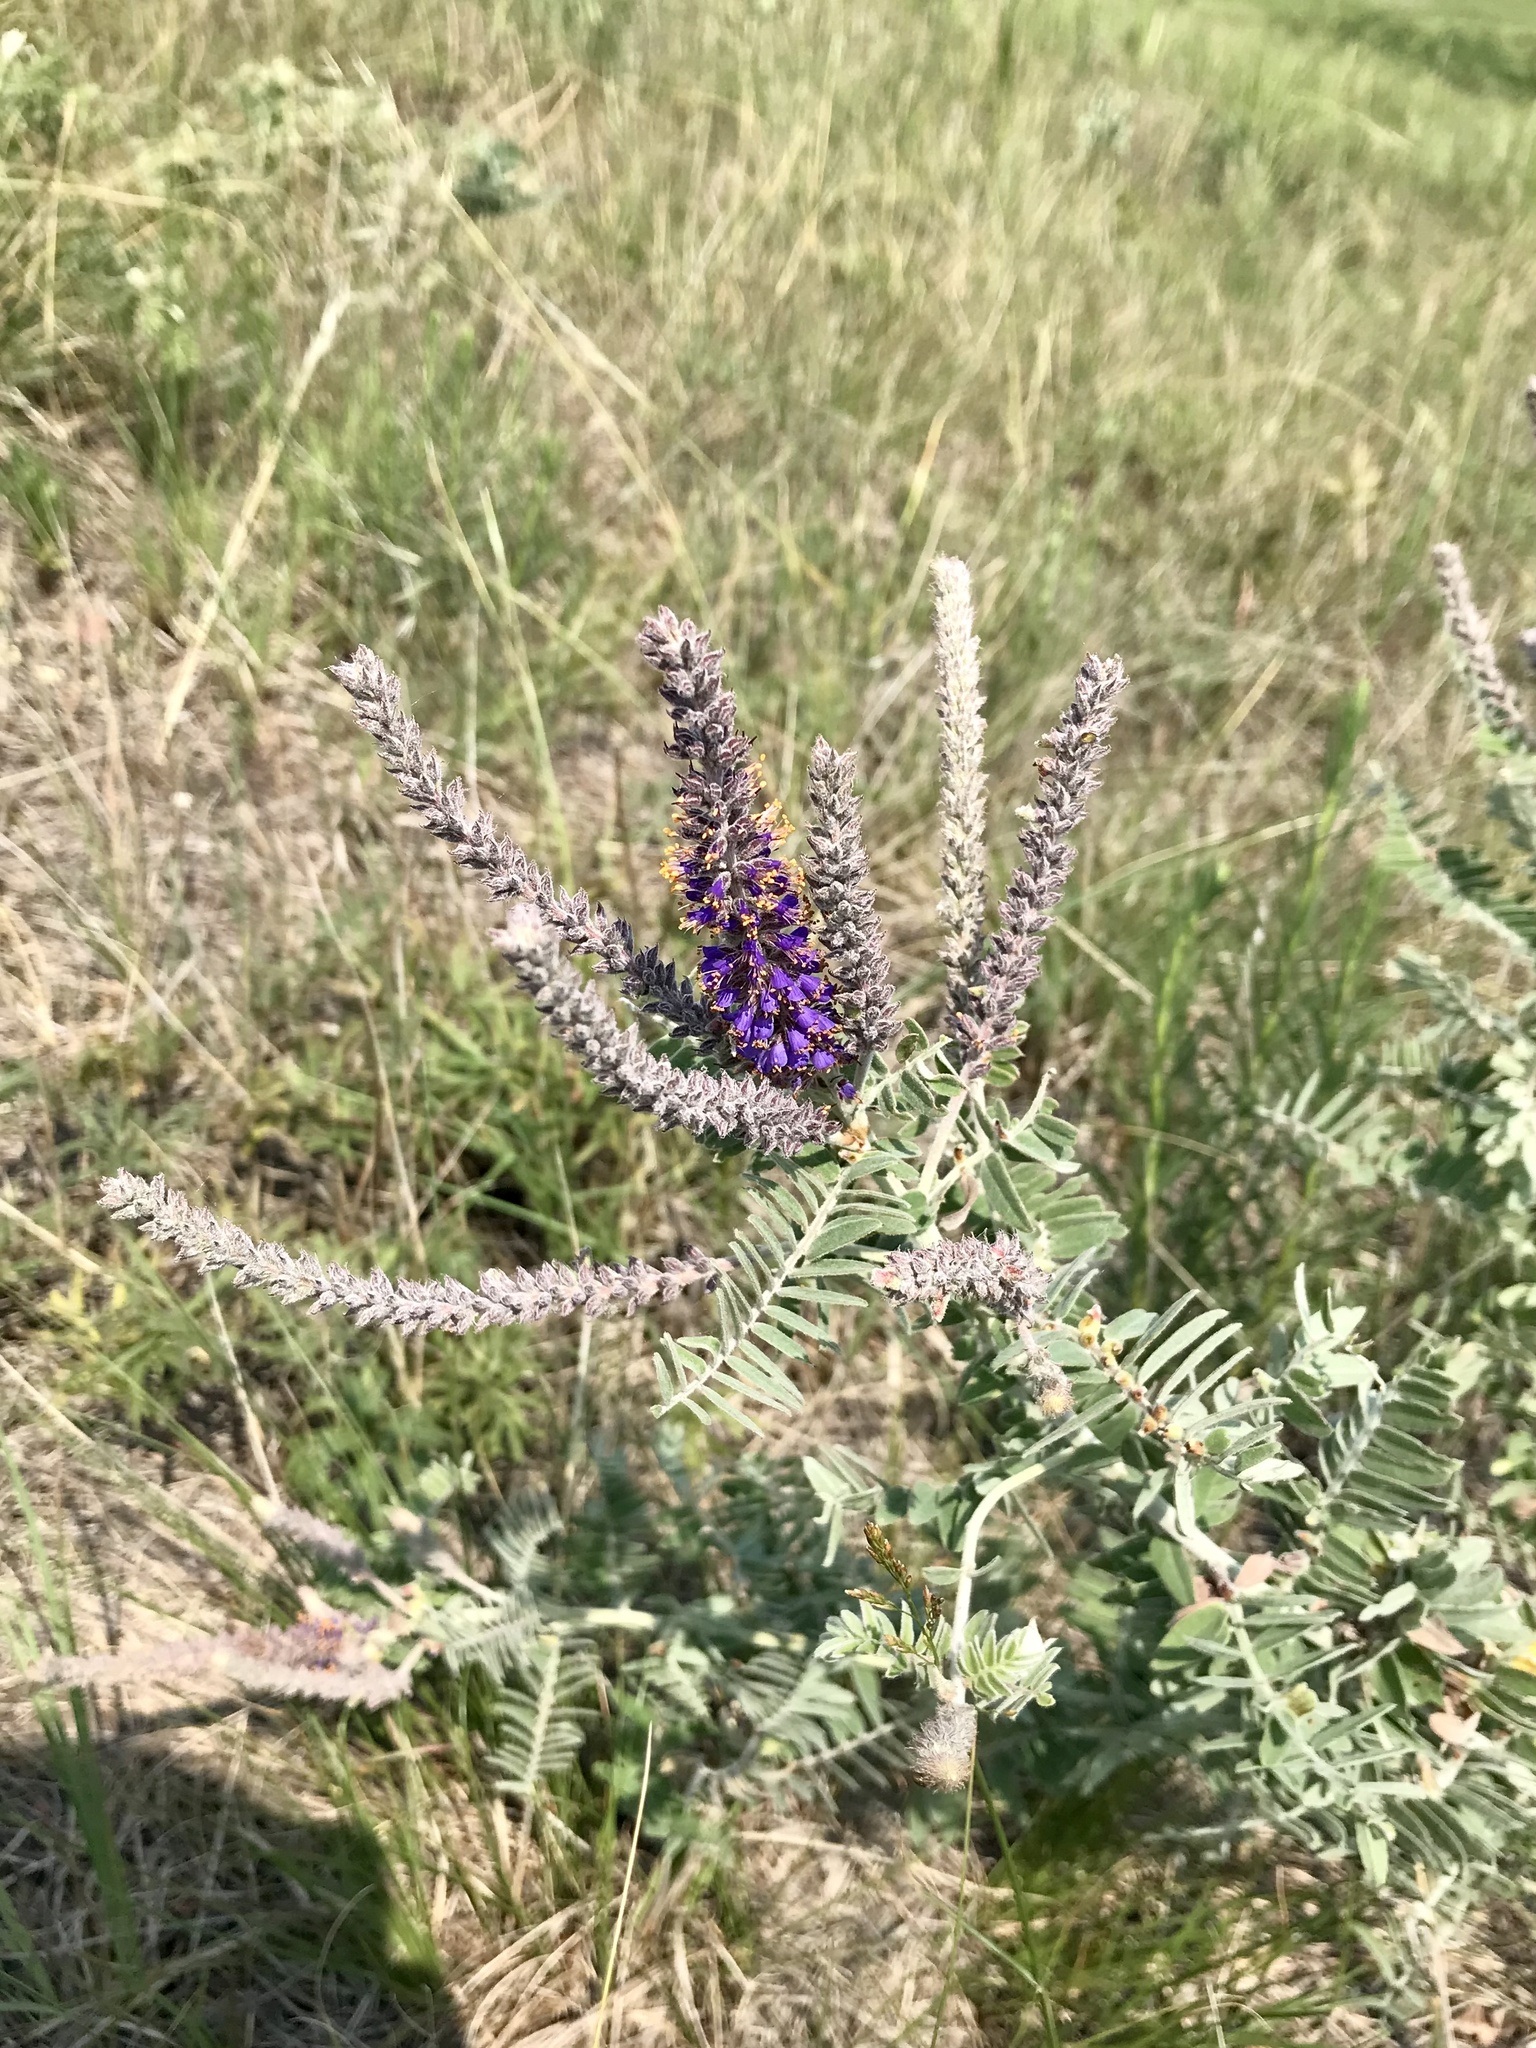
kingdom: Plantae
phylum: Tracheophyta
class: Magnoliopsida
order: Fabales
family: Fabaceae
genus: Amorpha
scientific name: Amorpha canescens
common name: Leadplant
